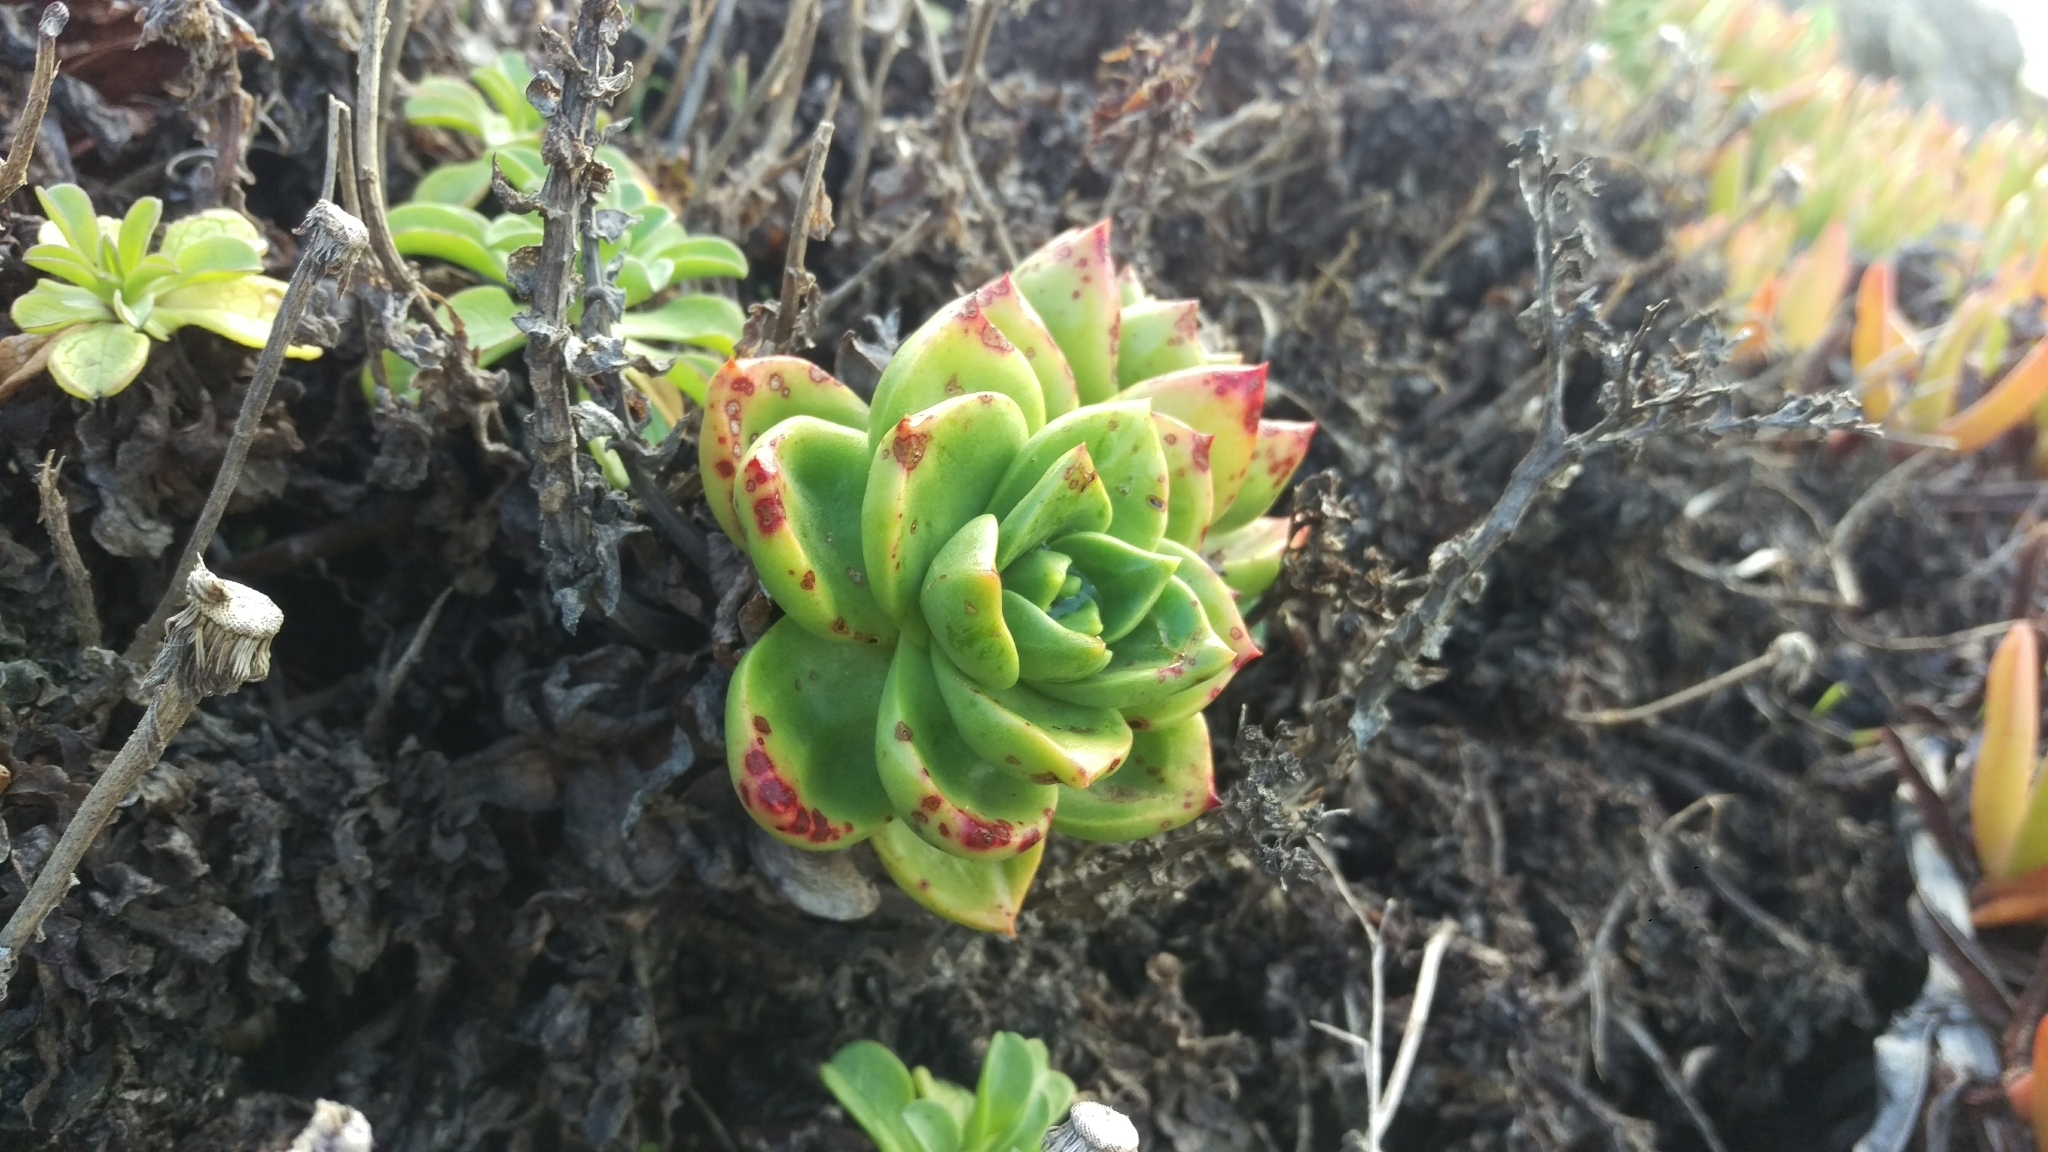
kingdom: Plantae
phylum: Tracheophyta
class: Magnoliopsida
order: Saxifragales
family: Crassulaceae
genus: Dudleya
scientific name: Dudleya farinosa
